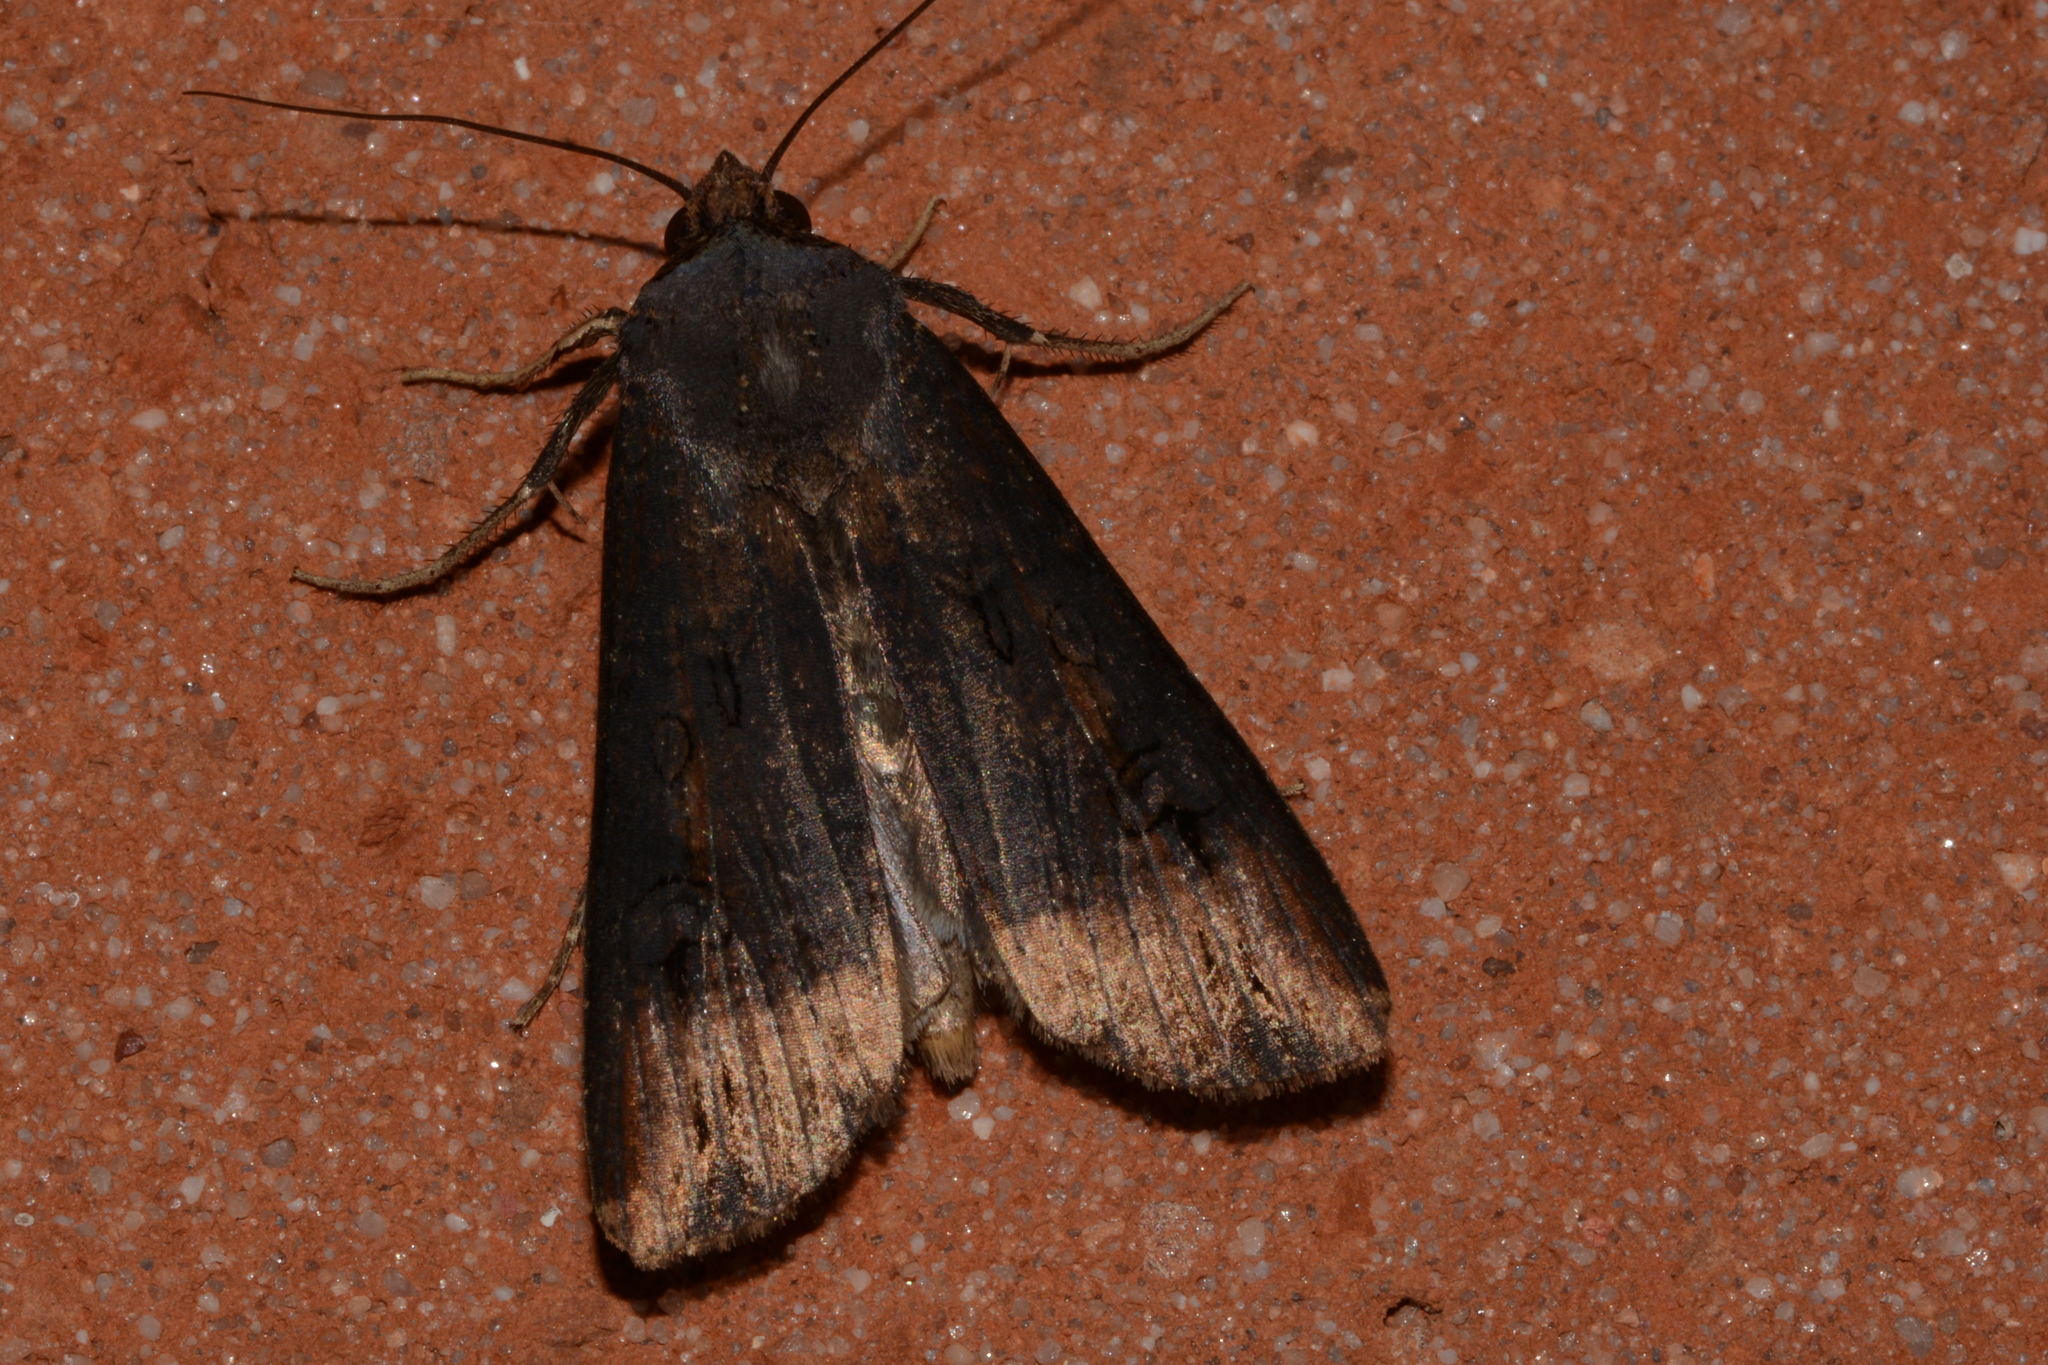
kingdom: Animalia
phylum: Arthropoda
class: Insecta
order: Lepidoptera
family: Noctuidae
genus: Agrotis
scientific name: Agrotis ipsilon
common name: Dark sword-grass
